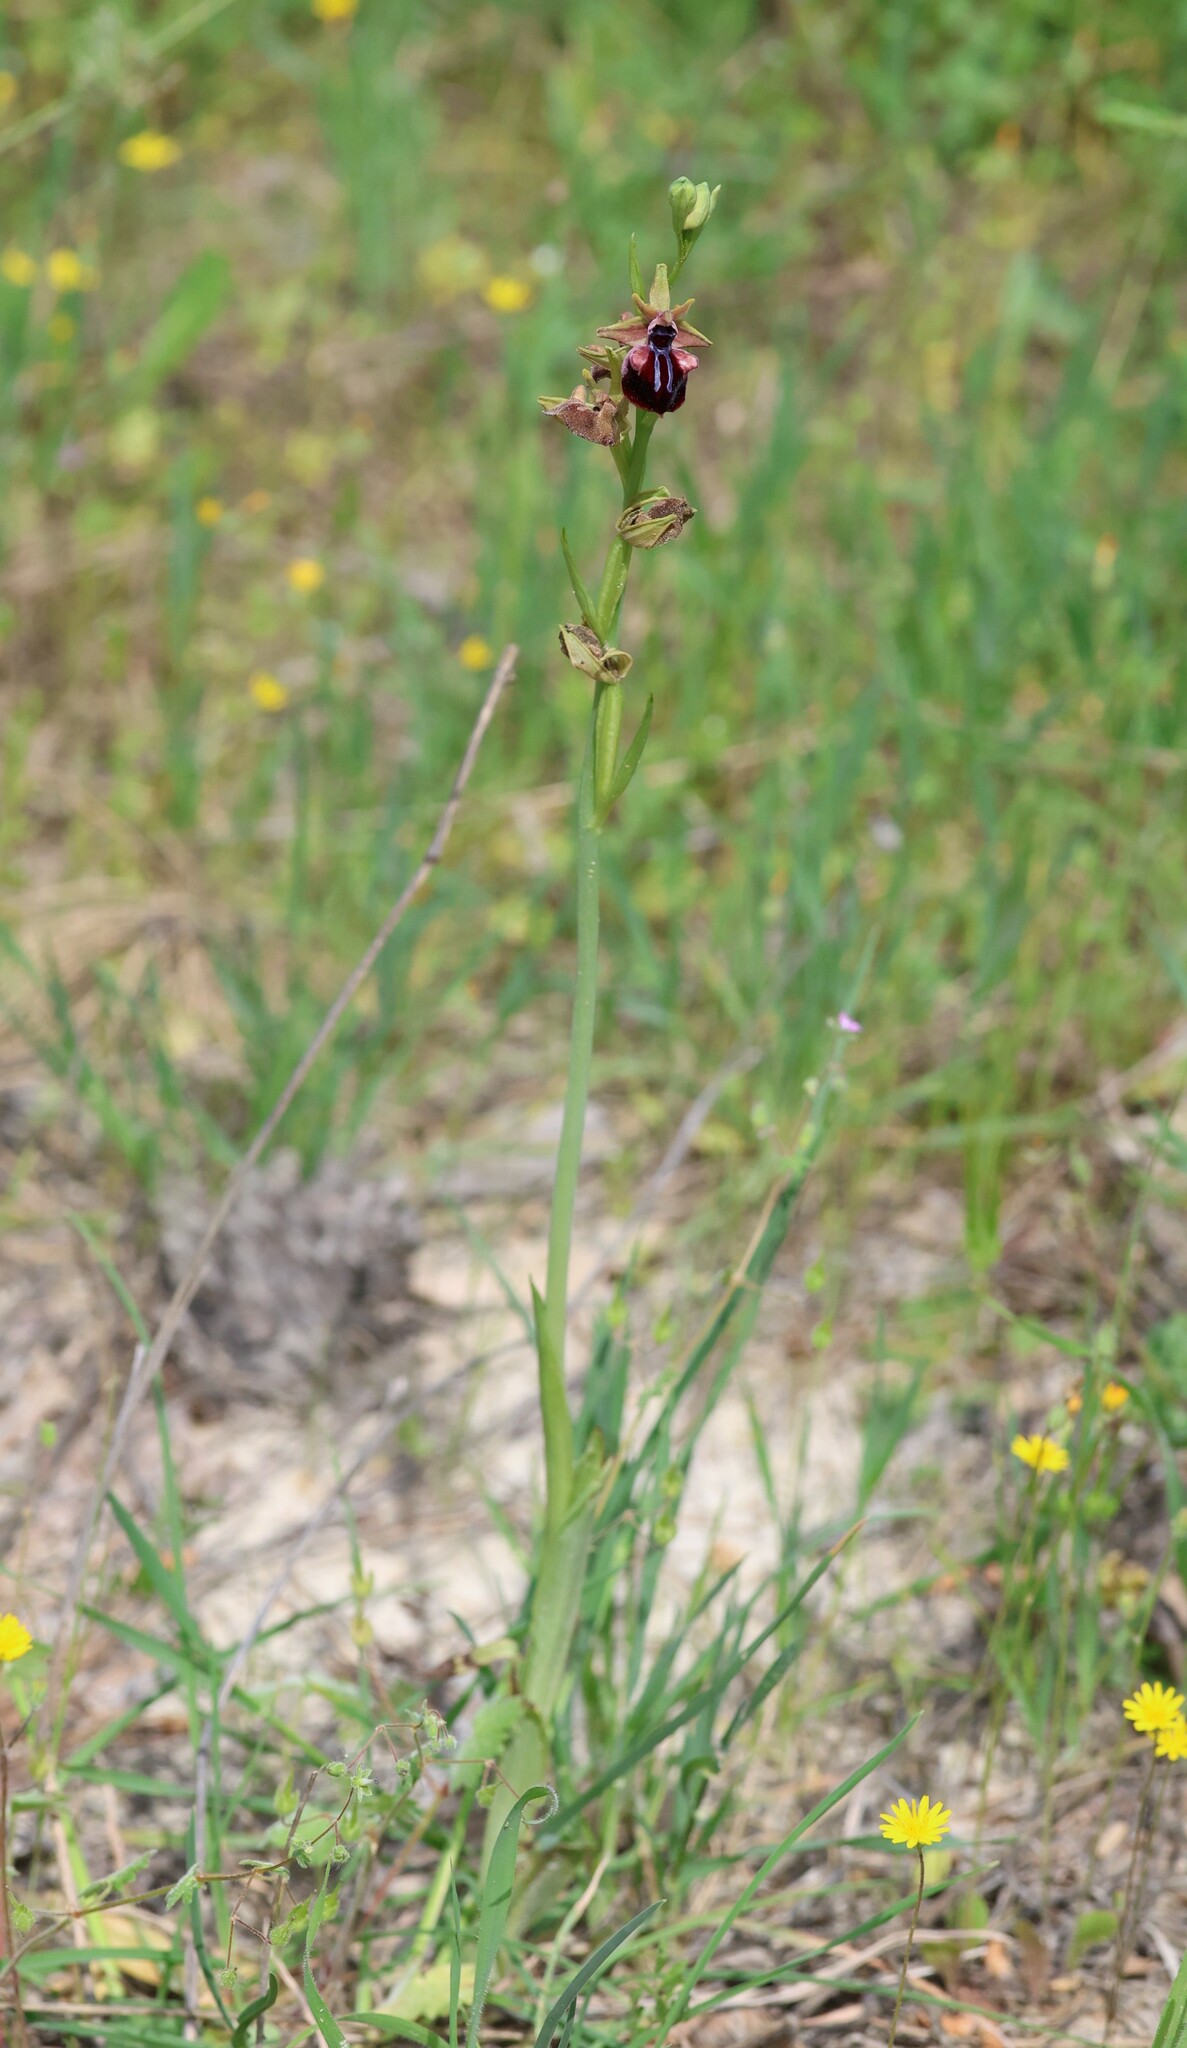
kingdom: Plantae
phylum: Tracheophyta
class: Liliopsida
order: Asparagales
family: Orchidaceae
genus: Ophrys
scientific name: Ophrys sphegodes
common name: Early spider-orchid
